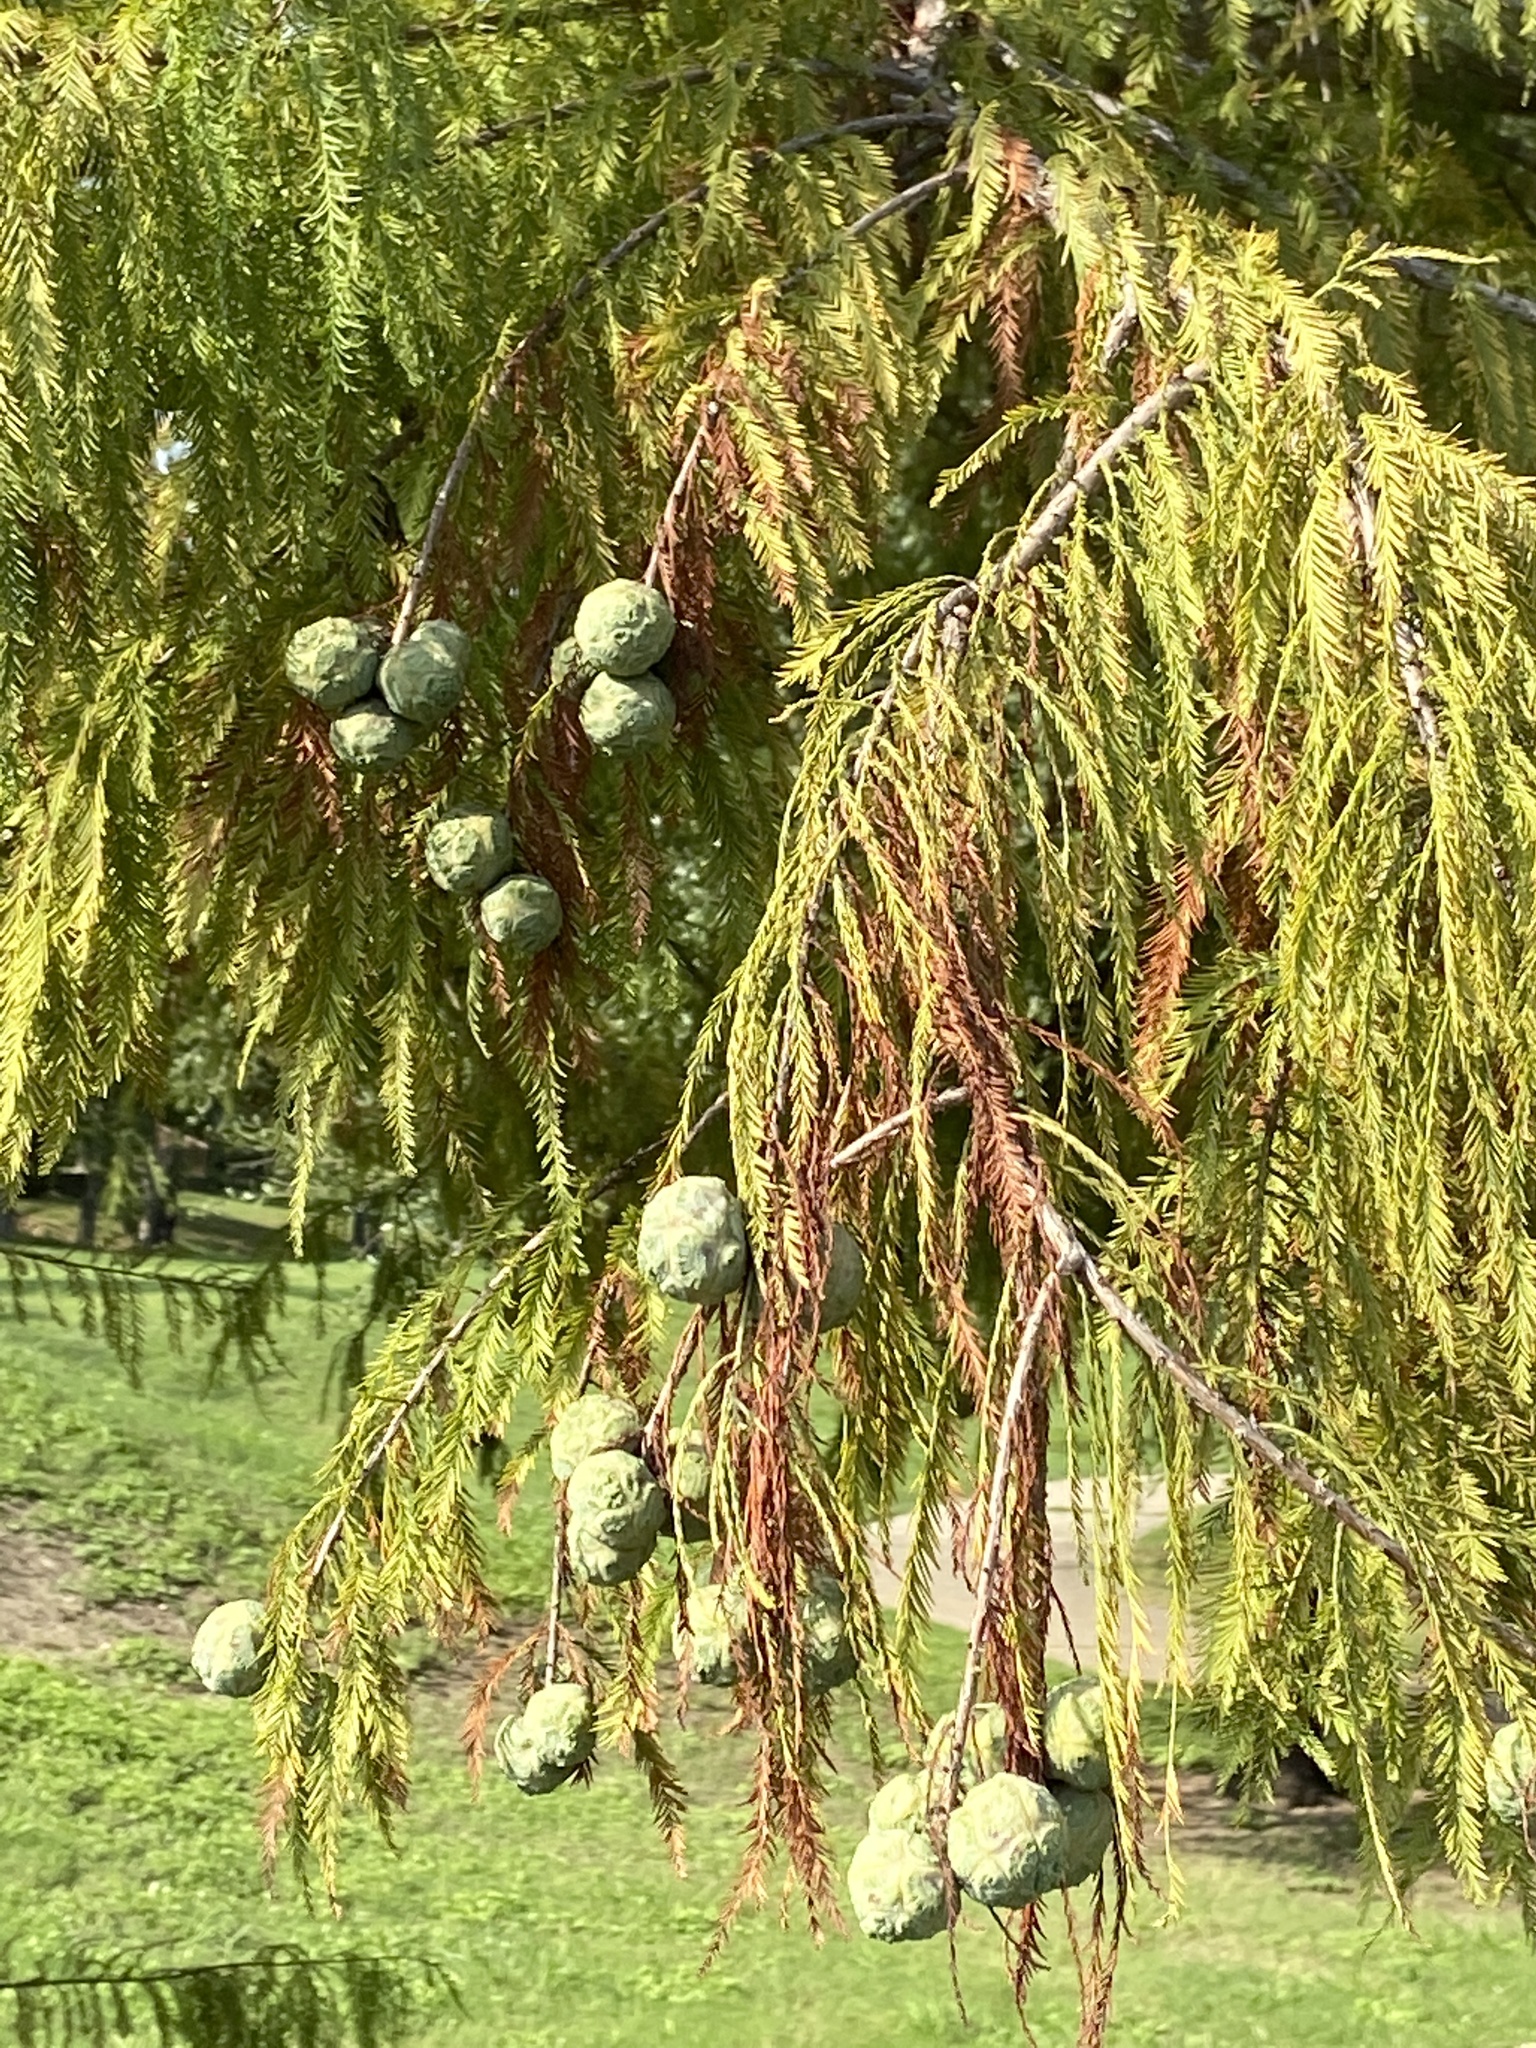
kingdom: Plantae
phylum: Tracheophyta
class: Pinopsida
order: Pinales
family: Cupressaceae
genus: Taxodium
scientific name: Taxodium distichum
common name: Bald cypress
